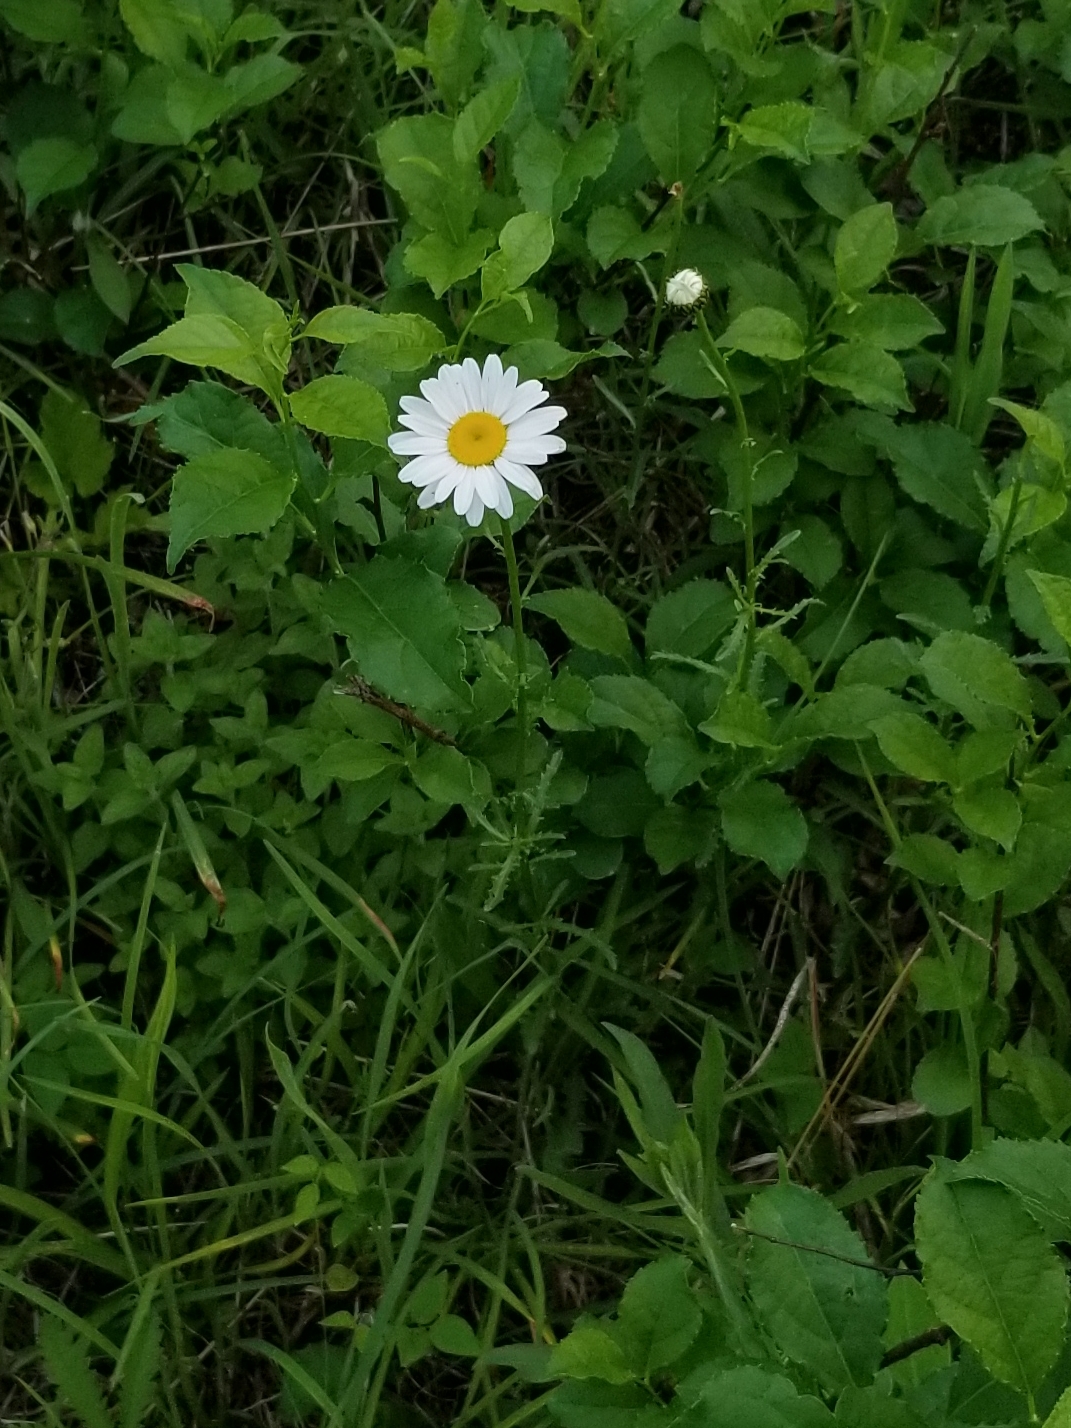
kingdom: Plantae
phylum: Tracheophyta
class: Magnoliopsida
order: Asterales
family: Asteraceae
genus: Leucanthemum
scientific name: Leucanthemum vulgare
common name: Oxeye daisy
